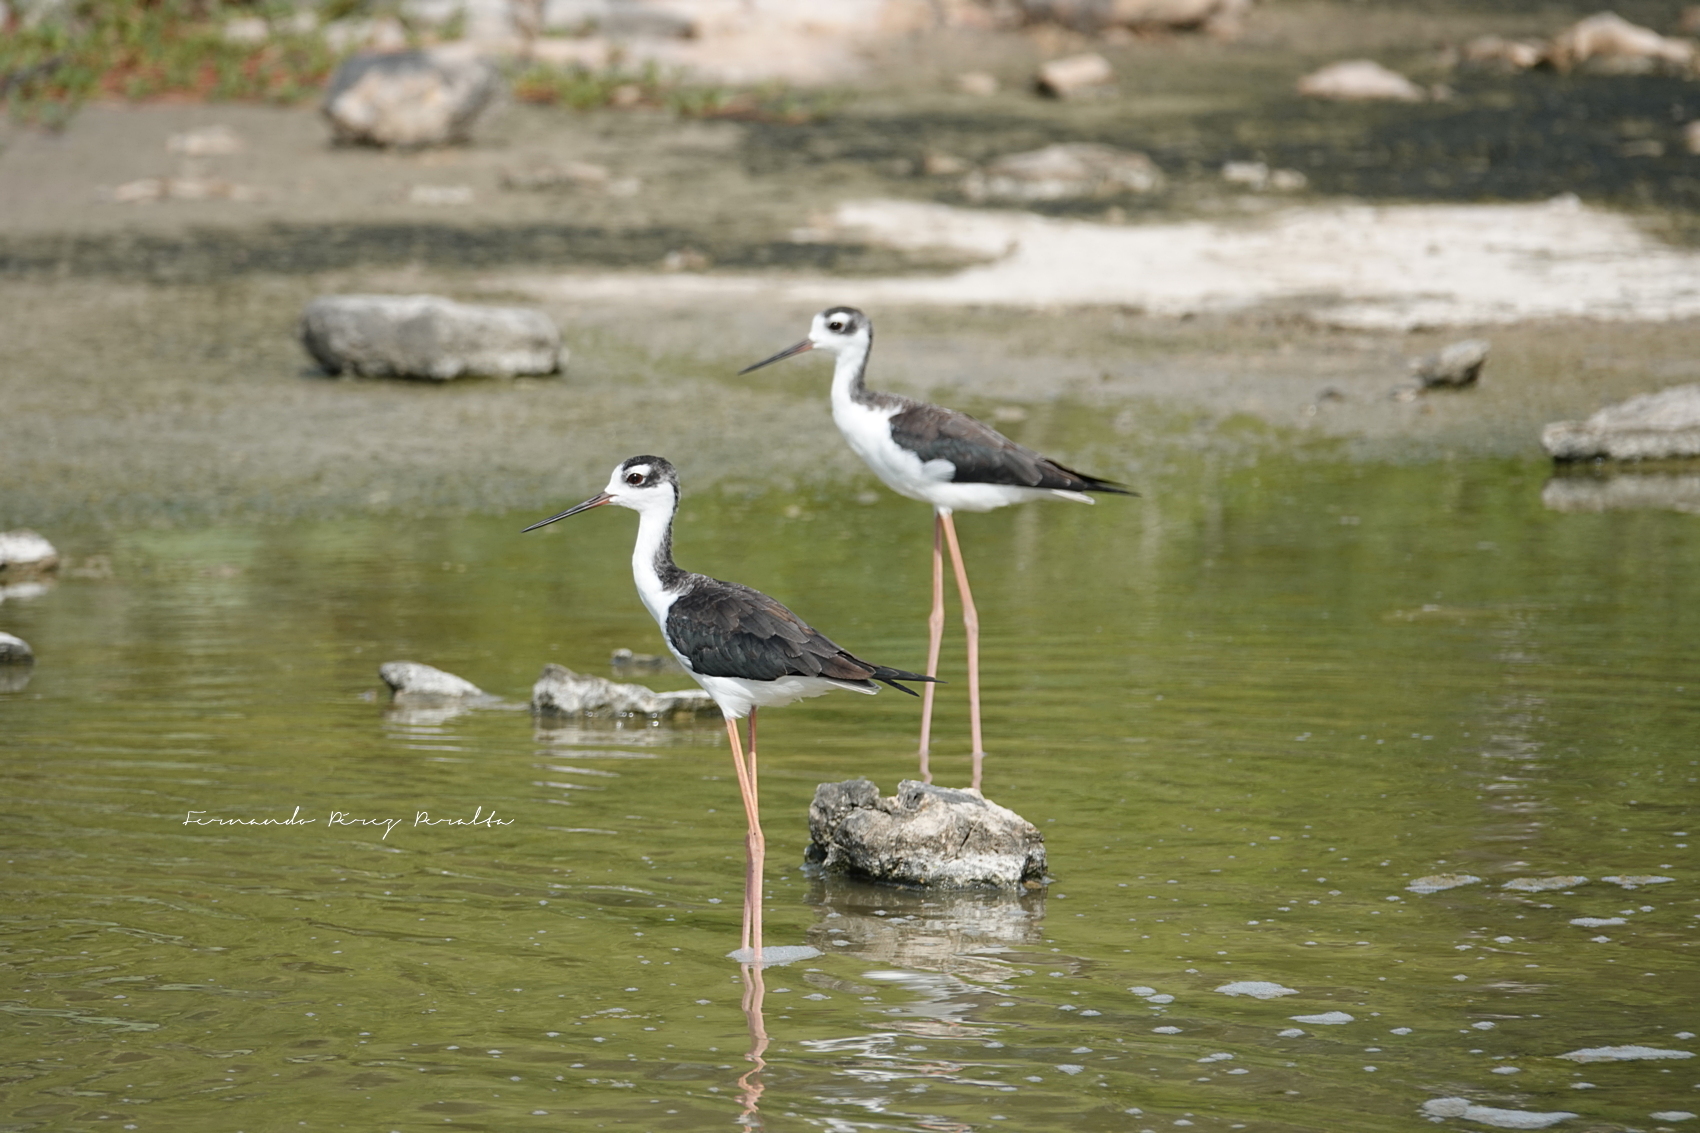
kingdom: Animalia
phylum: Chordata
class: Aves
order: Charadriiformes
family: Recurvirostridae
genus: Himantopus
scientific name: Himantopus mexicanus
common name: Black-necked stilt
